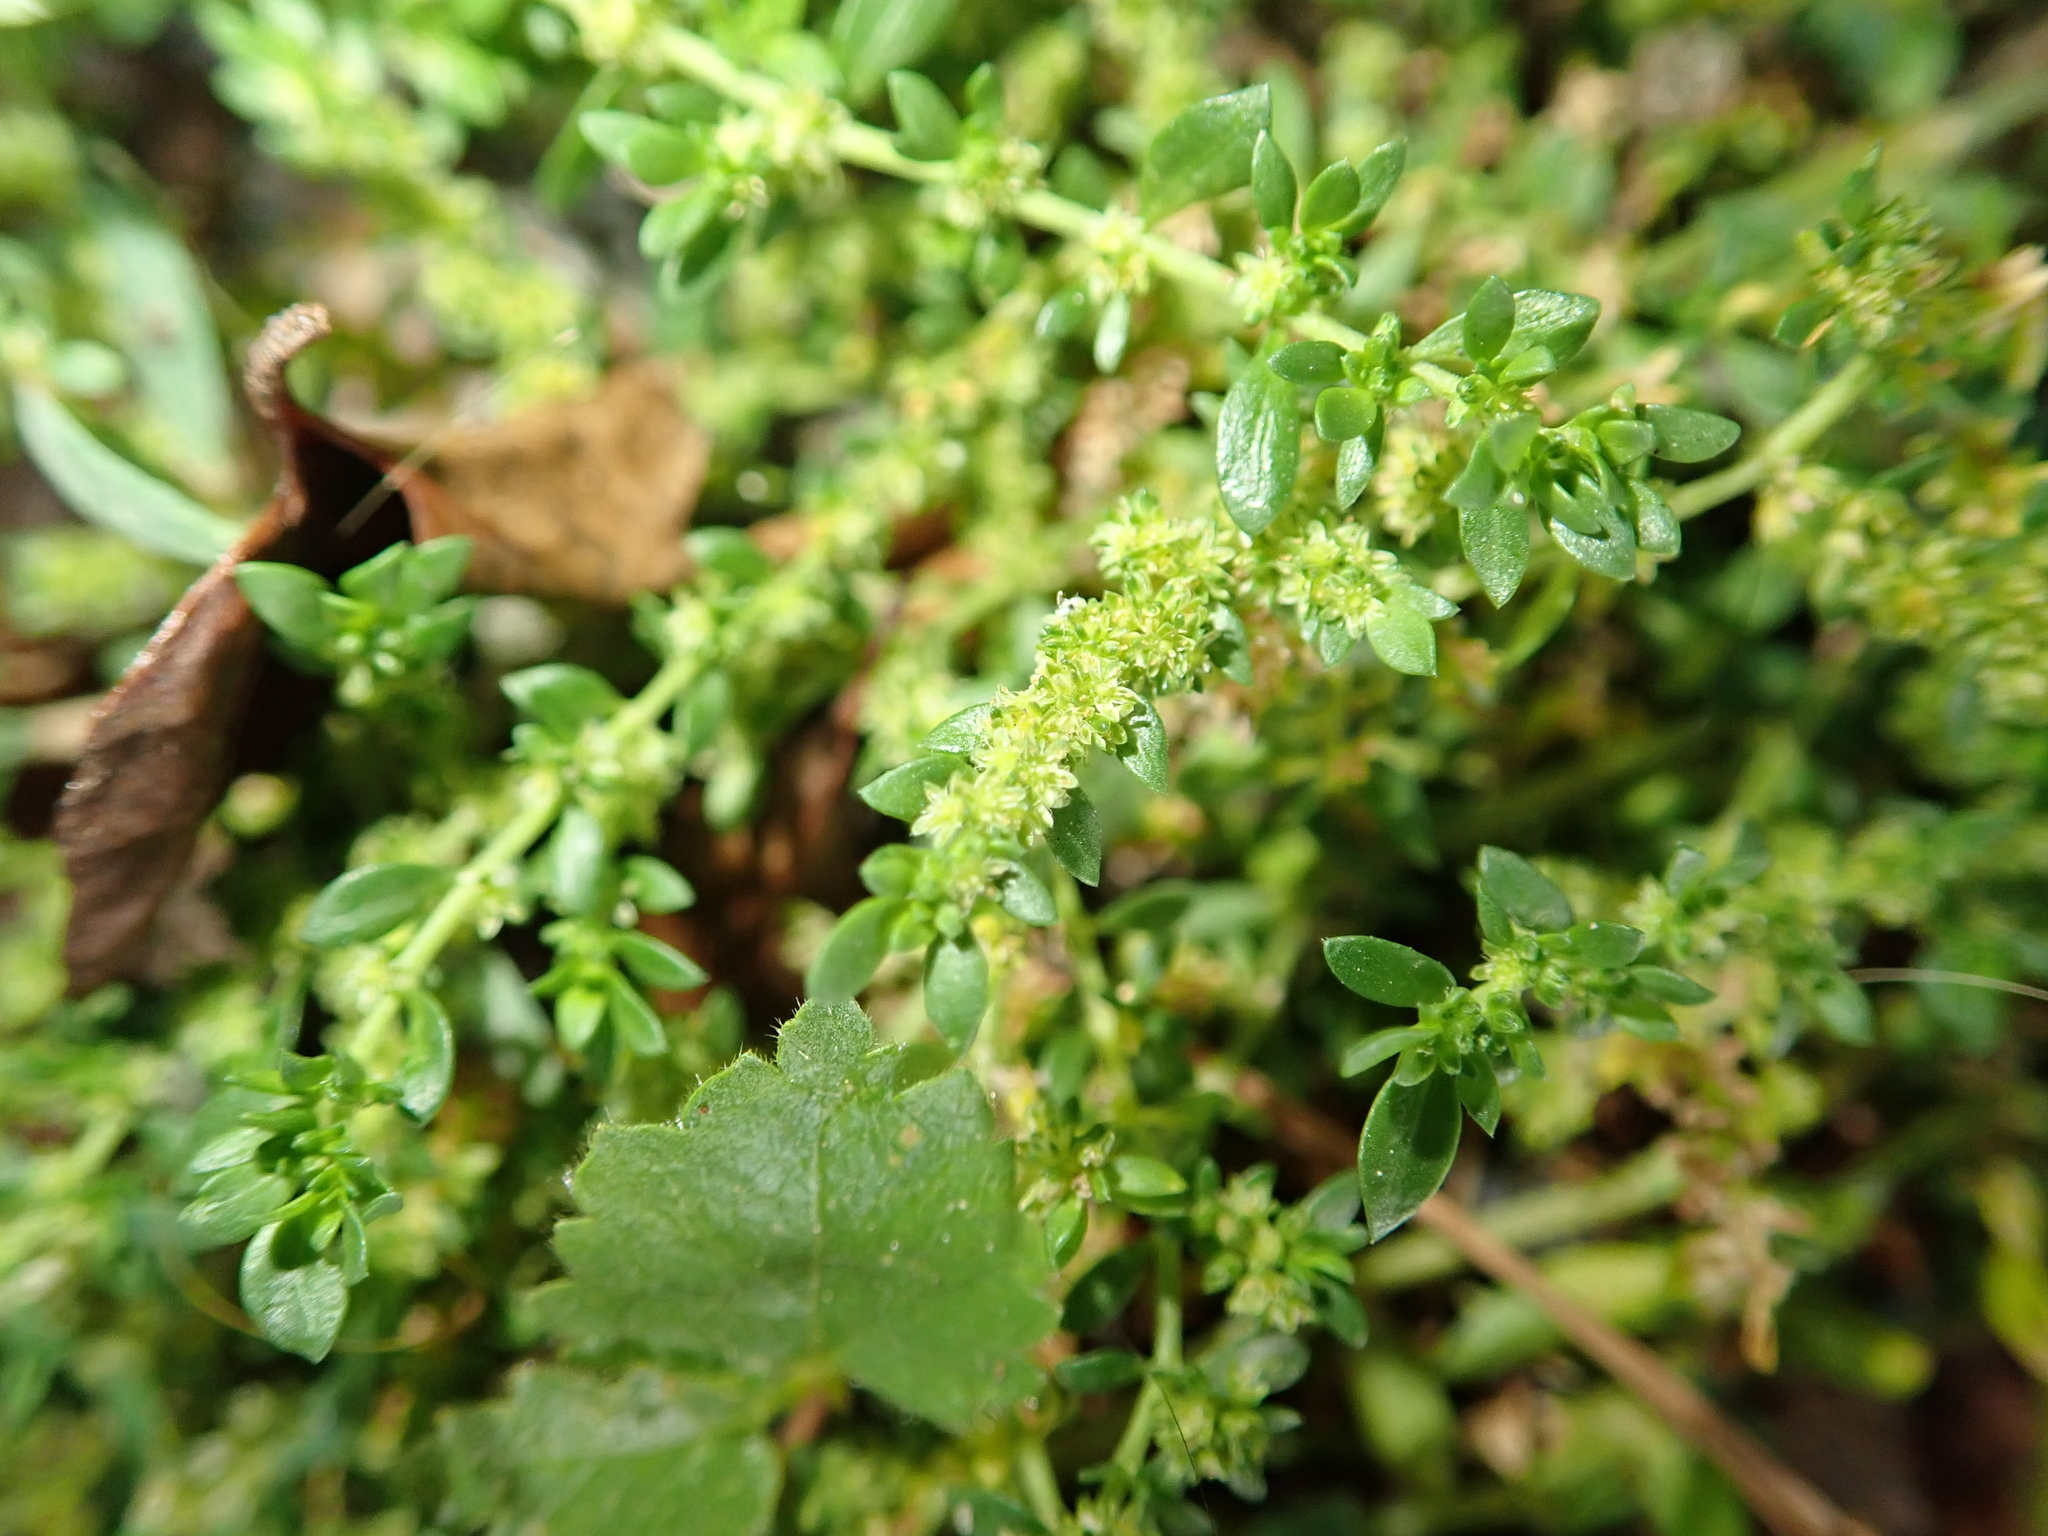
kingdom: Plantae
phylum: Tracheophyta
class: Magnoliopsida
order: Caryophyllales
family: Caryophyllaceae
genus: Herniaria
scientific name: Herniaria glabra
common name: Smooth rupturewort
